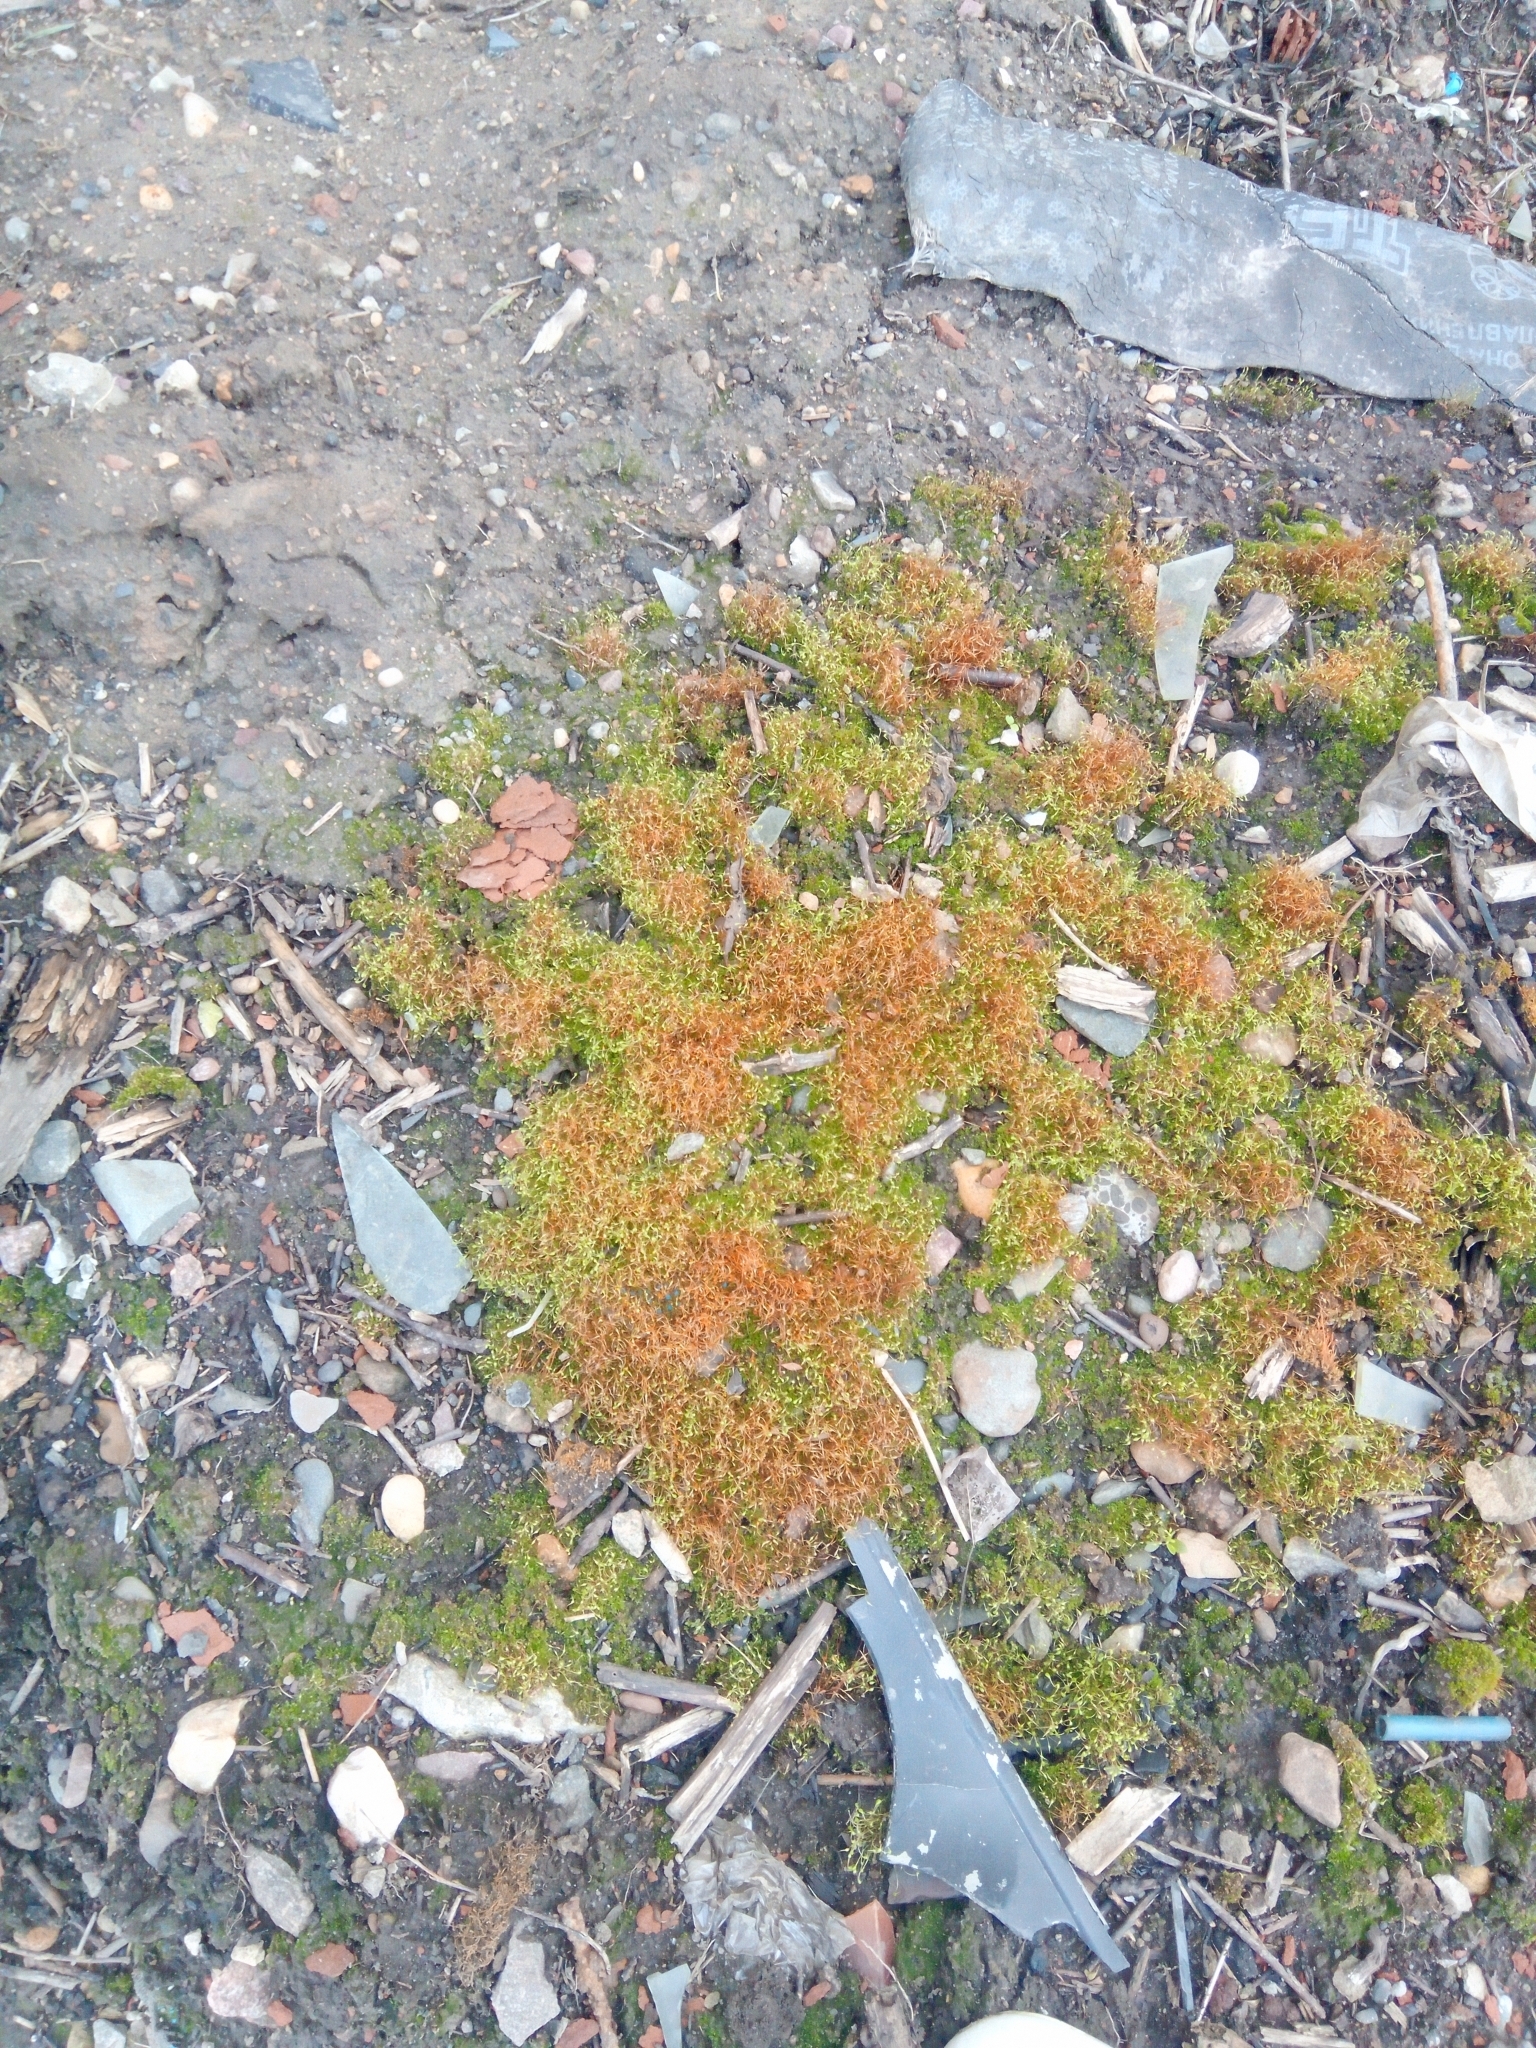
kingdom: Plantae
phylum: Bryophyta
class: Bryopsida
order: Funariales
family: Funariaceae
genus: Funaria
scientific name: Funaria hygrometrica
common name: Common cord moss
